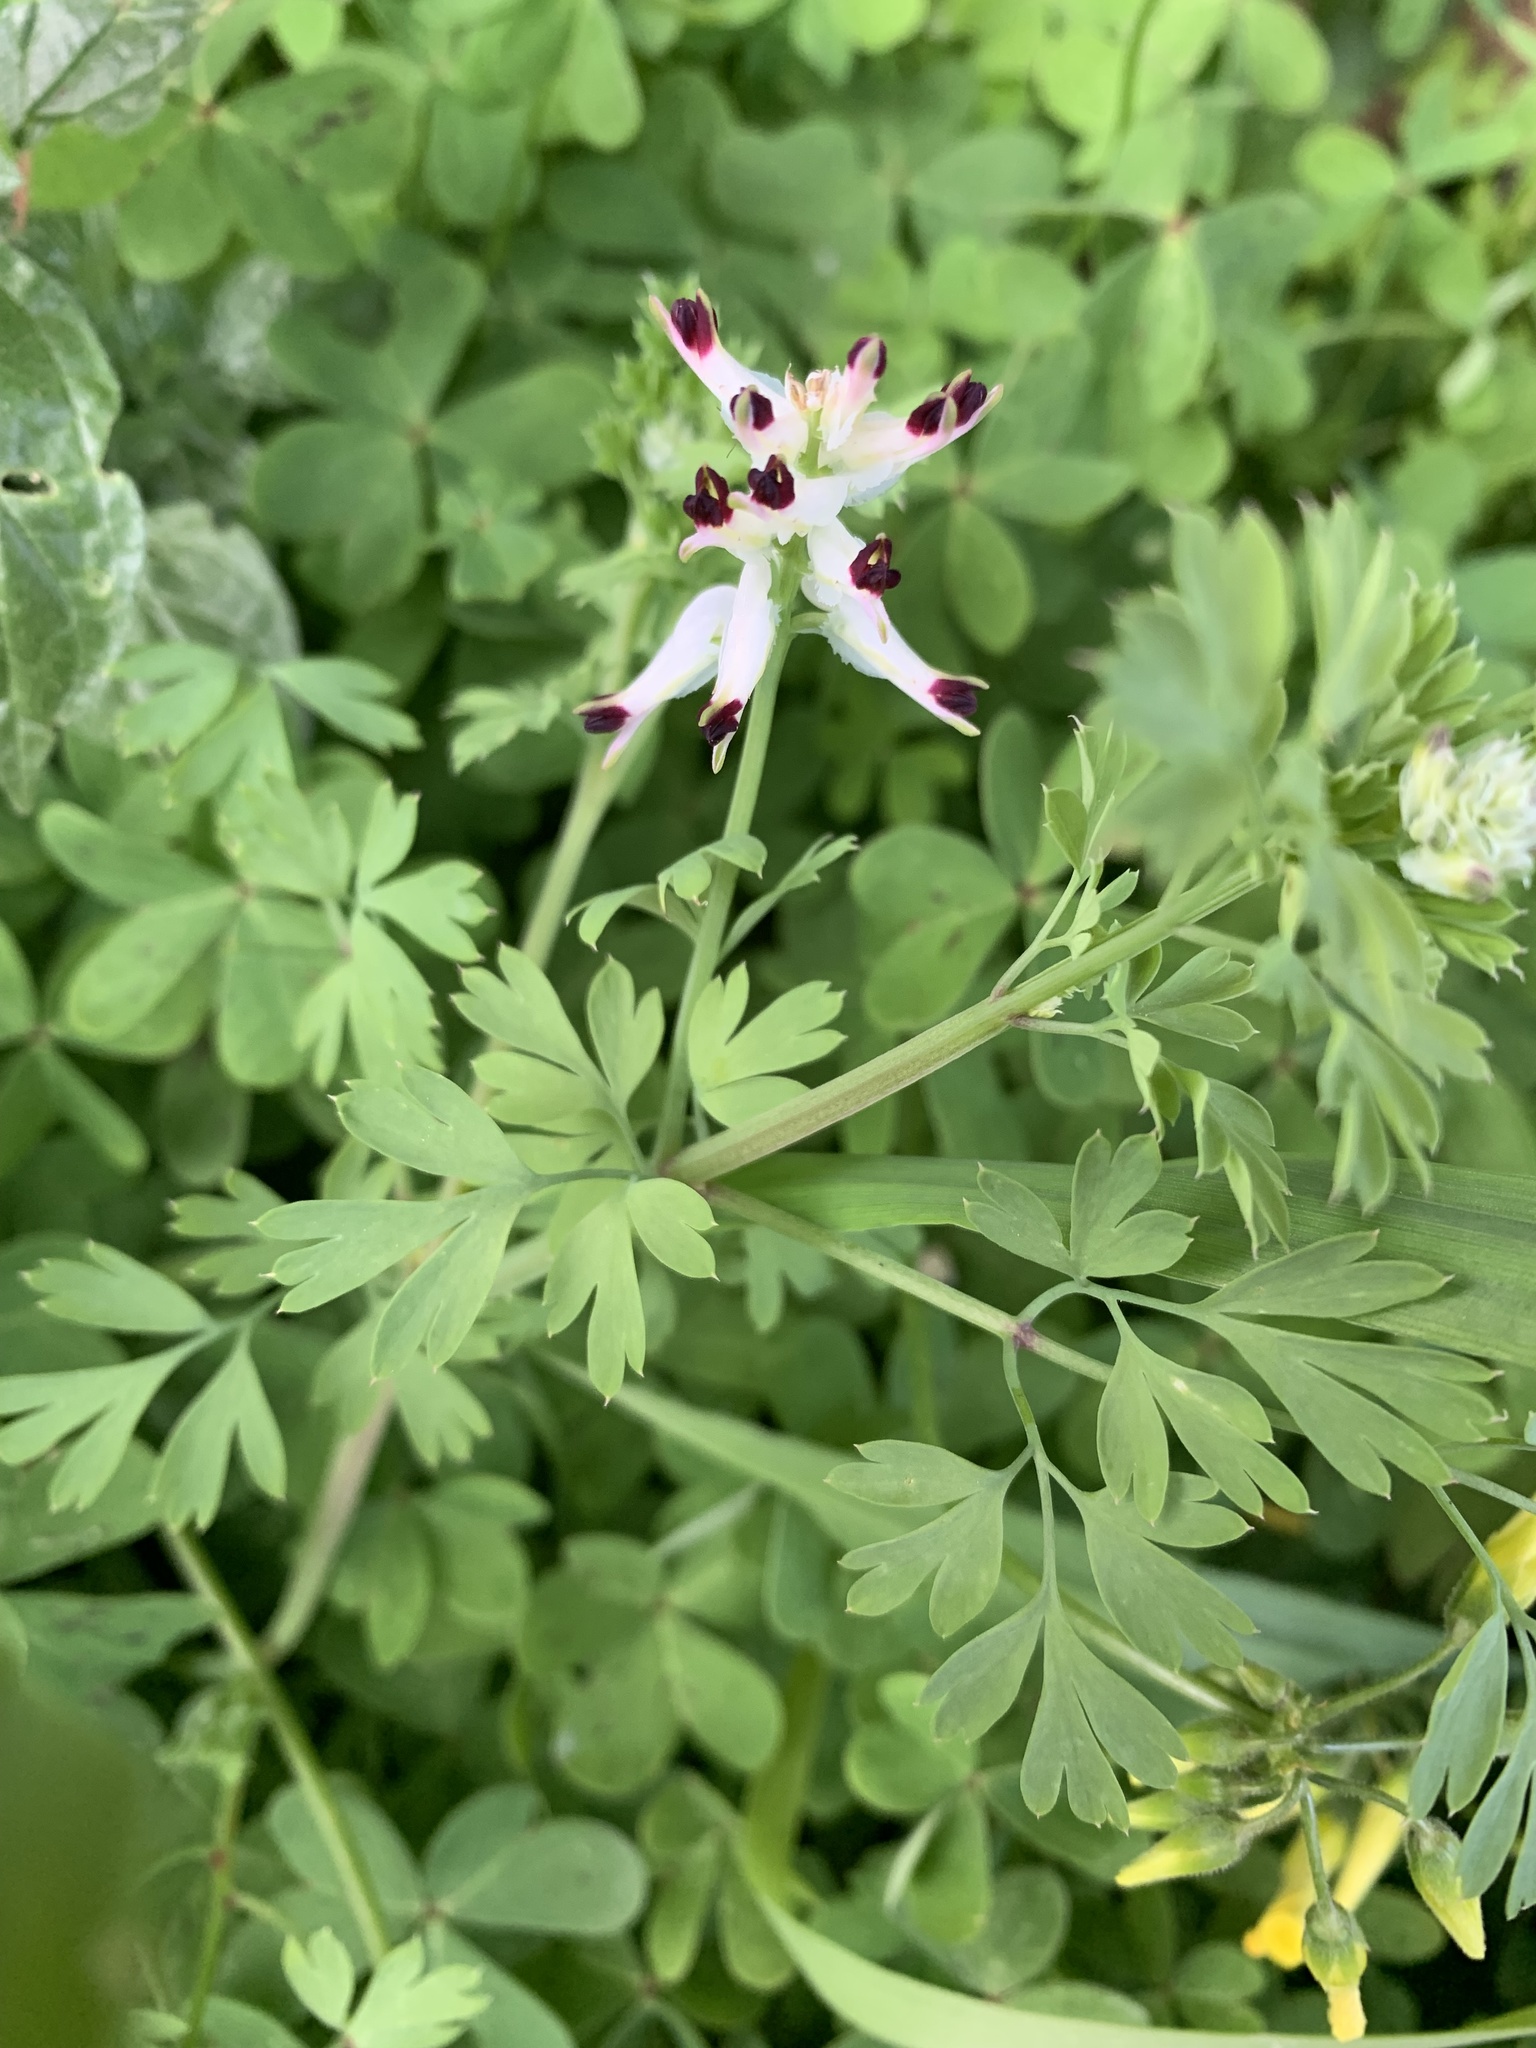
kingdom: Plantae
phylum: Tracheophyta
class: Magnoliopsida
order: Ranunculales
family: Papaveraceae
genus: Fumaria
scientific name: Fumaria capreolata
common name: White ramping-fumitory
